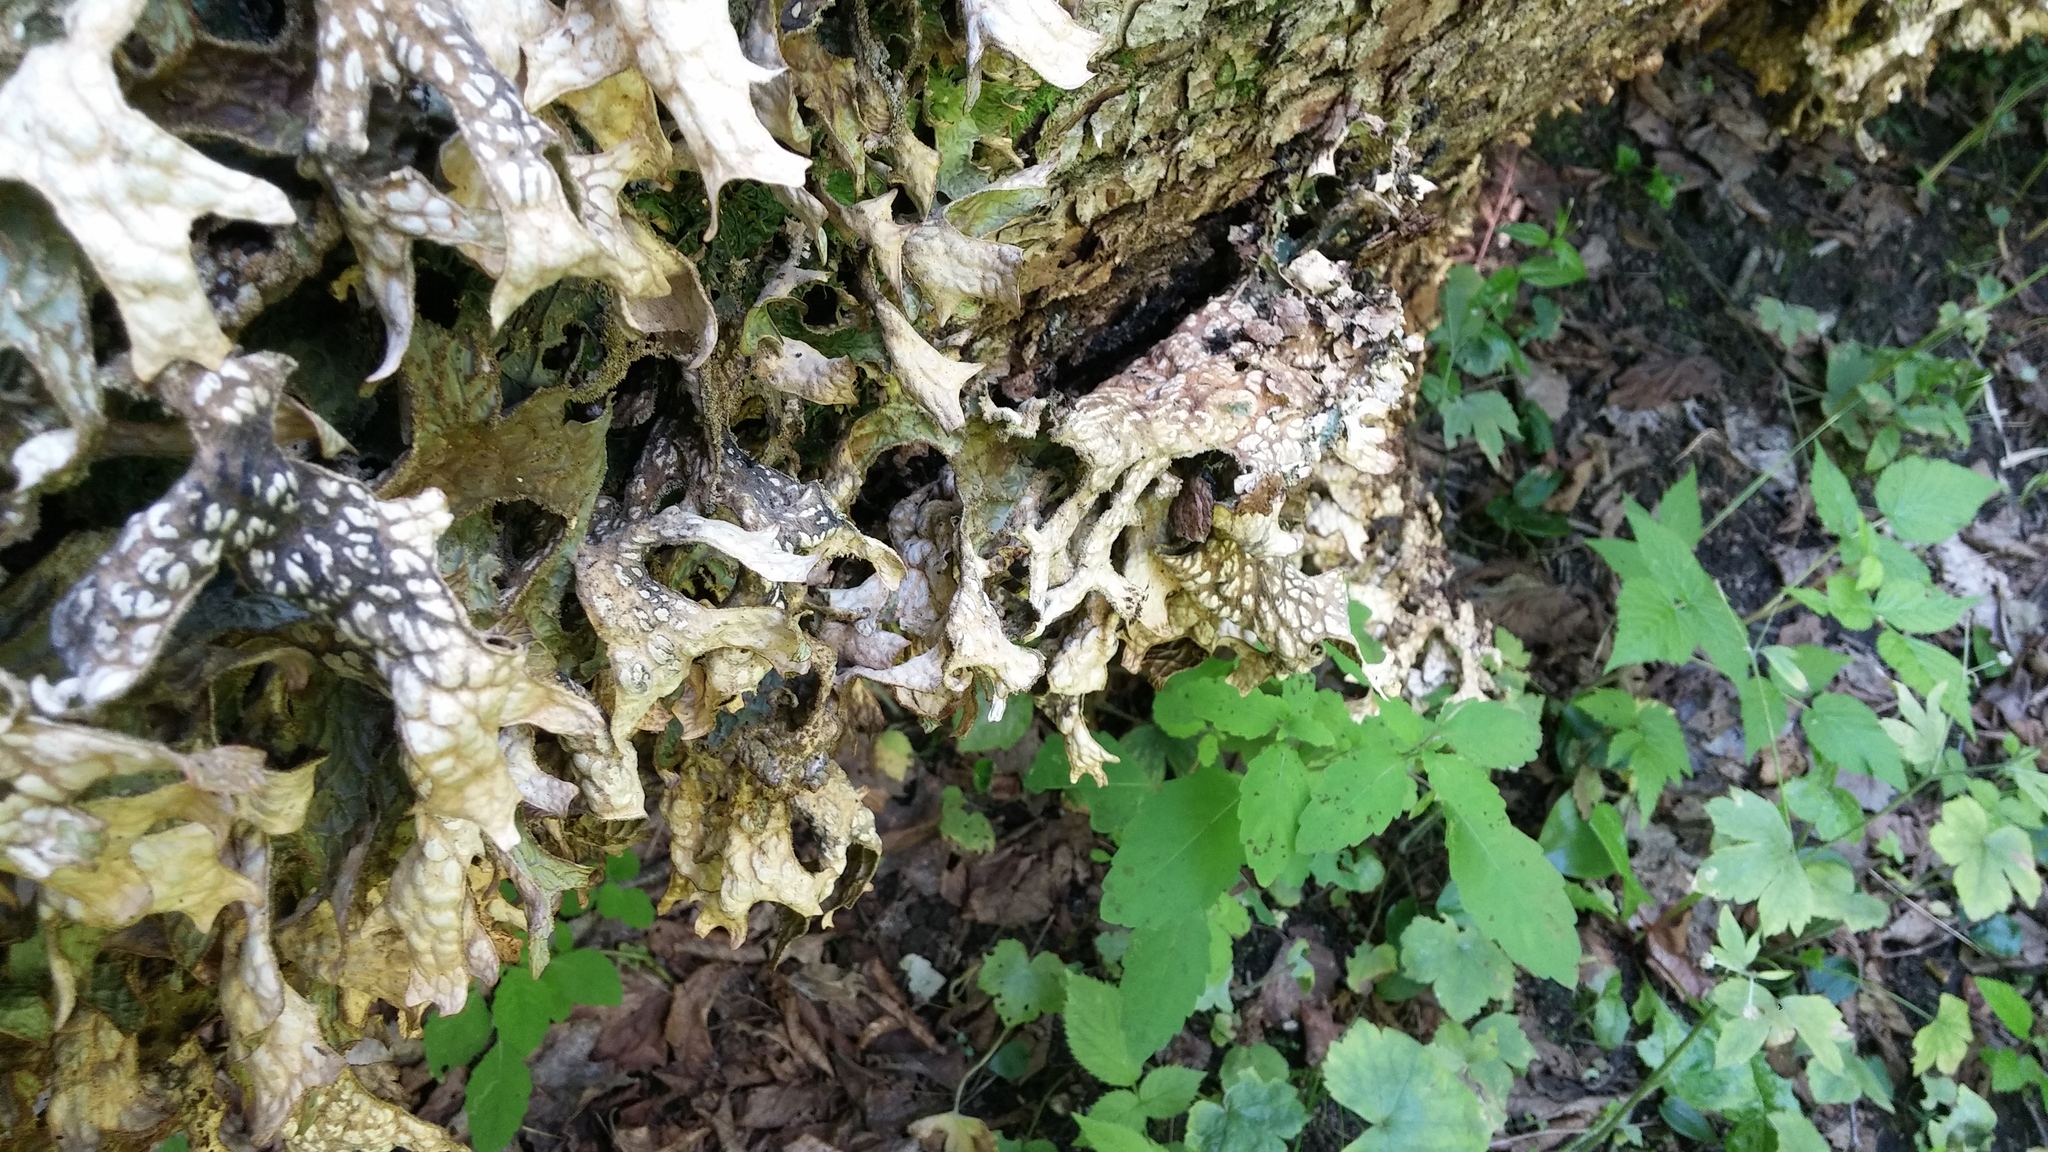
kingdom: Fungi
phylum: Ascomycota
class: Lecanoromycetes
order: Peltigerales
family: Lobariaceae
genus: Lobaria
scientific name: Lobaria pulmonaria
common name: Lungwort
